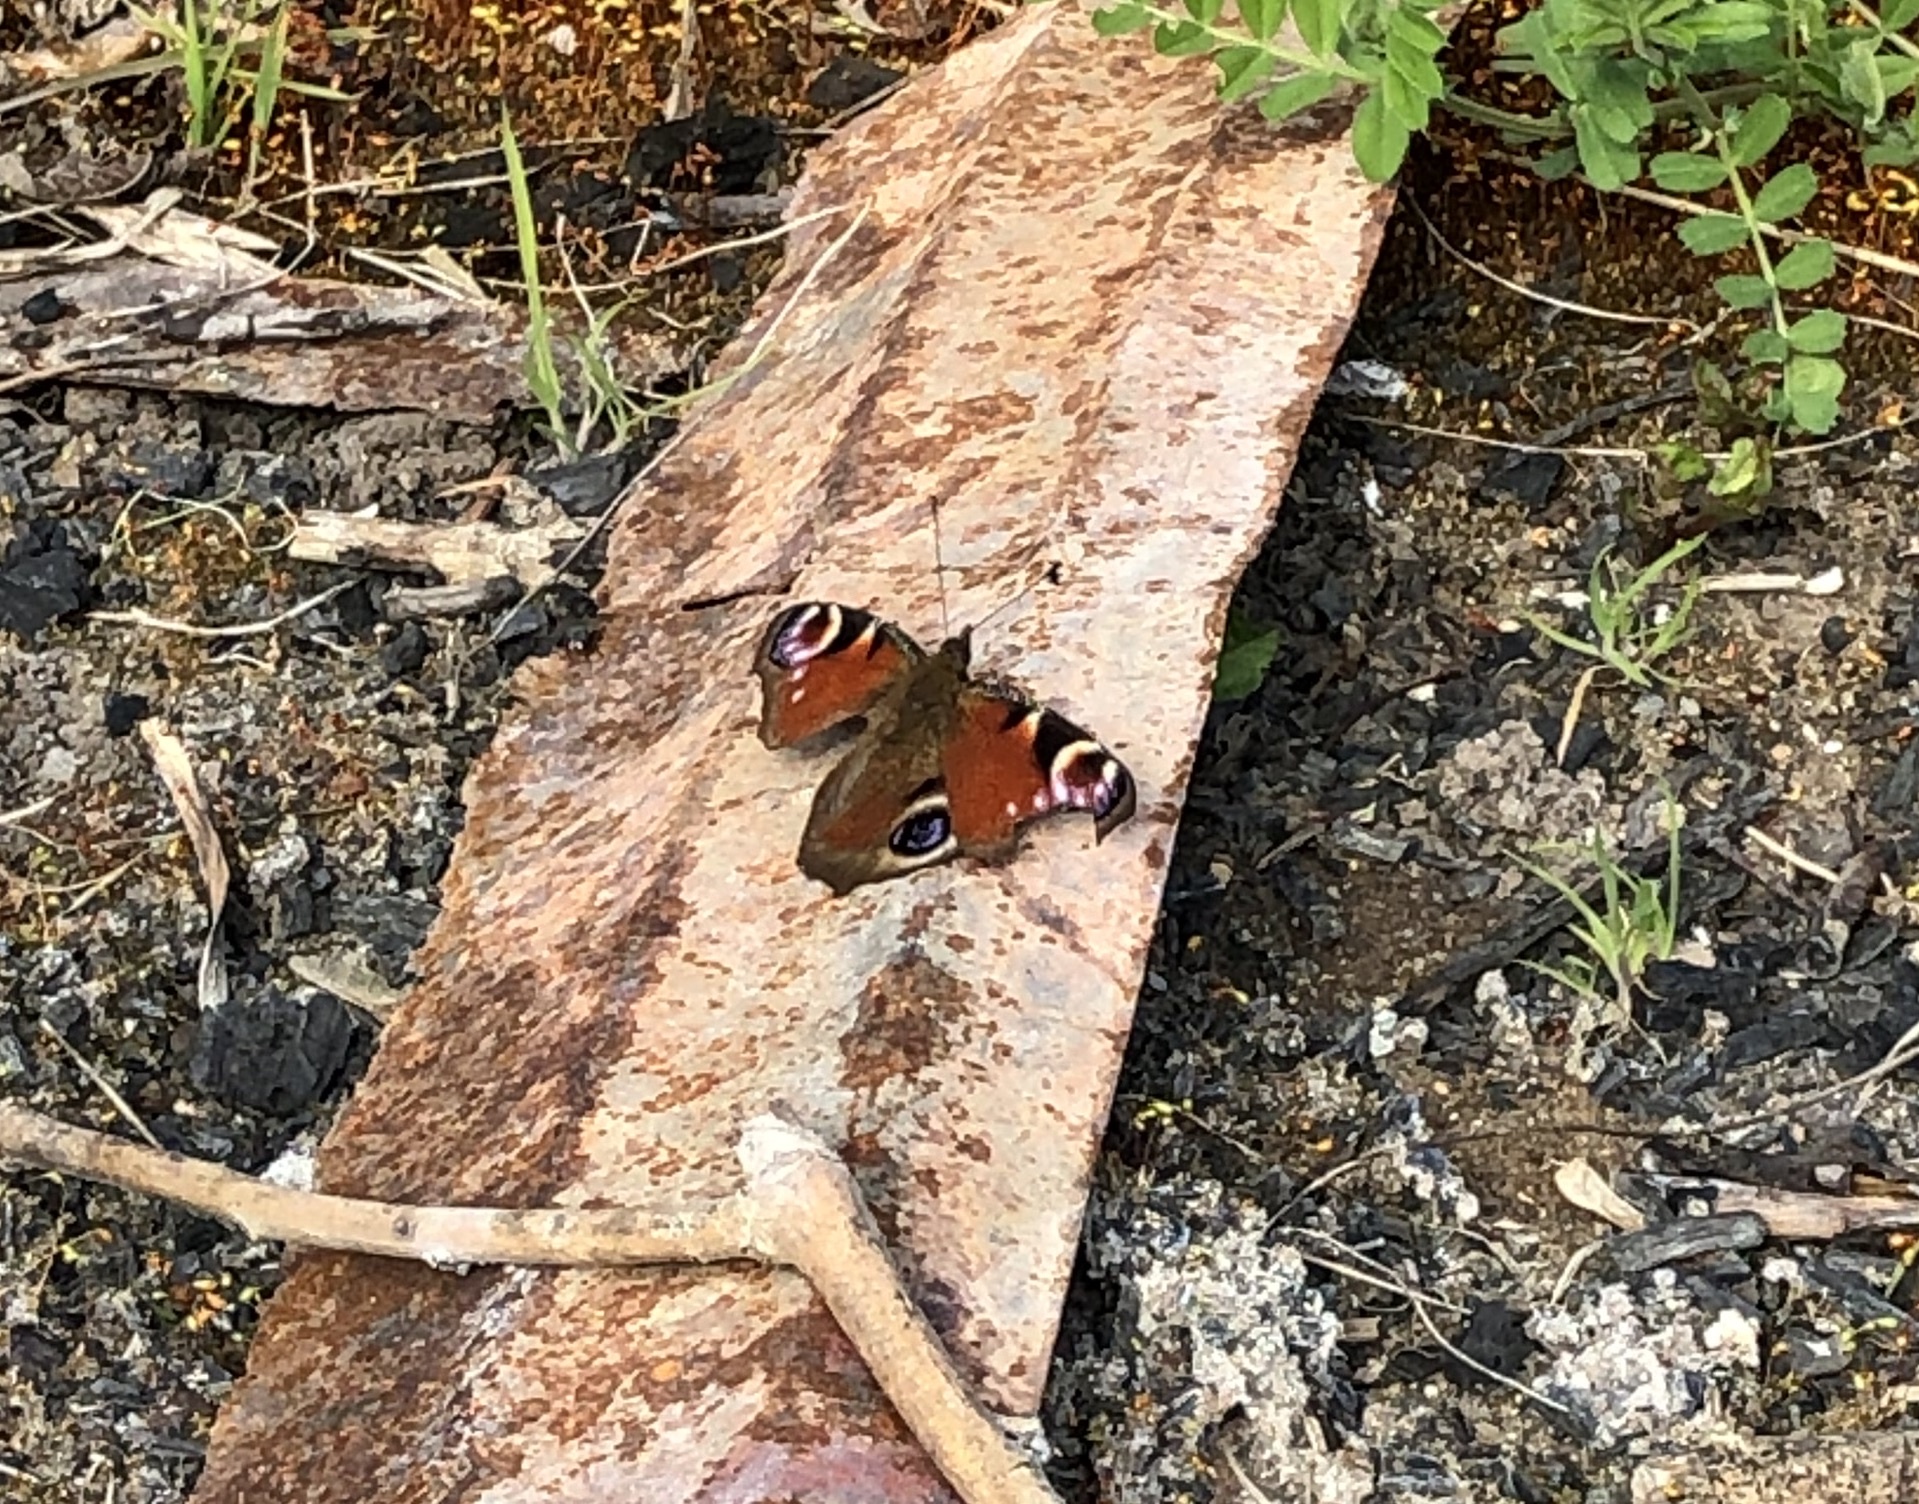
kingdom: Animalia
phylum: Arthropoda
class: Insecta
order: Lepidoptera
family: Nymphalidae
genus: Aglais
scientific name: Aglais io
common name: Peacock
